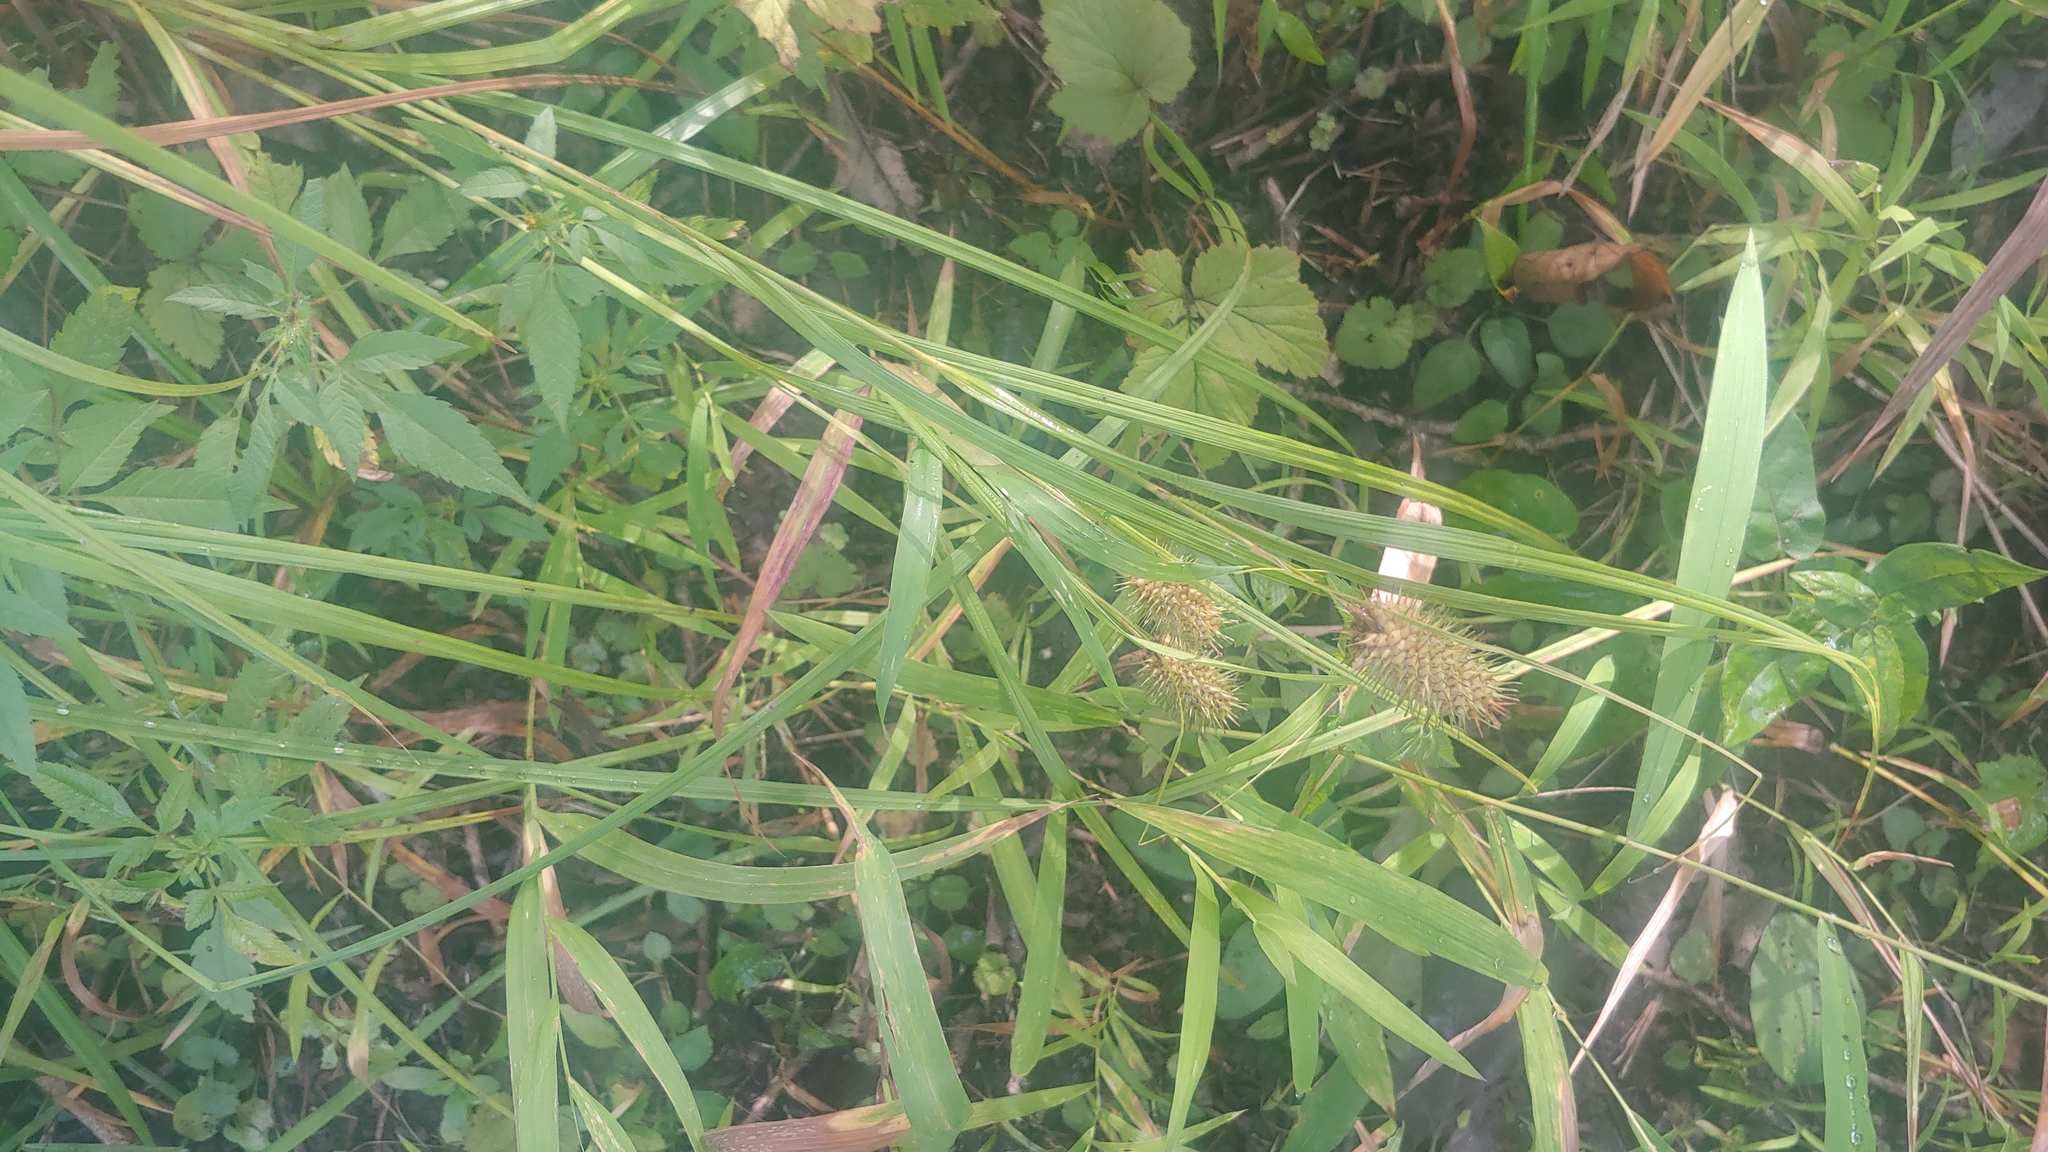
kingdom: Plantae
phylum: Tracheophyta
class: Liliopsida
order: Poales
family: Cyperaceae
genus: Carex
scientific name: Carex squarrosa
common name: Narrow-leaved cattail sedge
